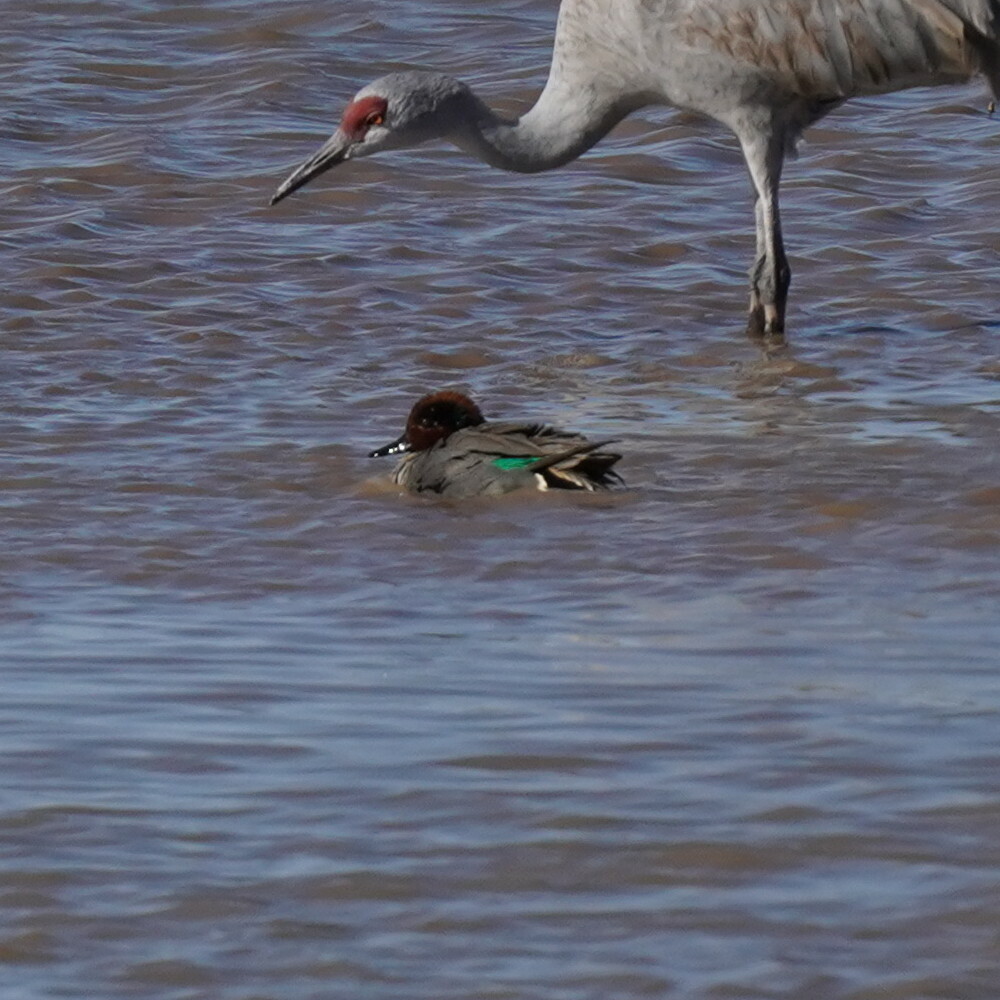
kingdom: Animalia
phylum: Chordata
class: Aves
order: Anseriformes
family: Anatidae
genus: Anas
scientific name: Anas crecca
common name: Eurasian teal
